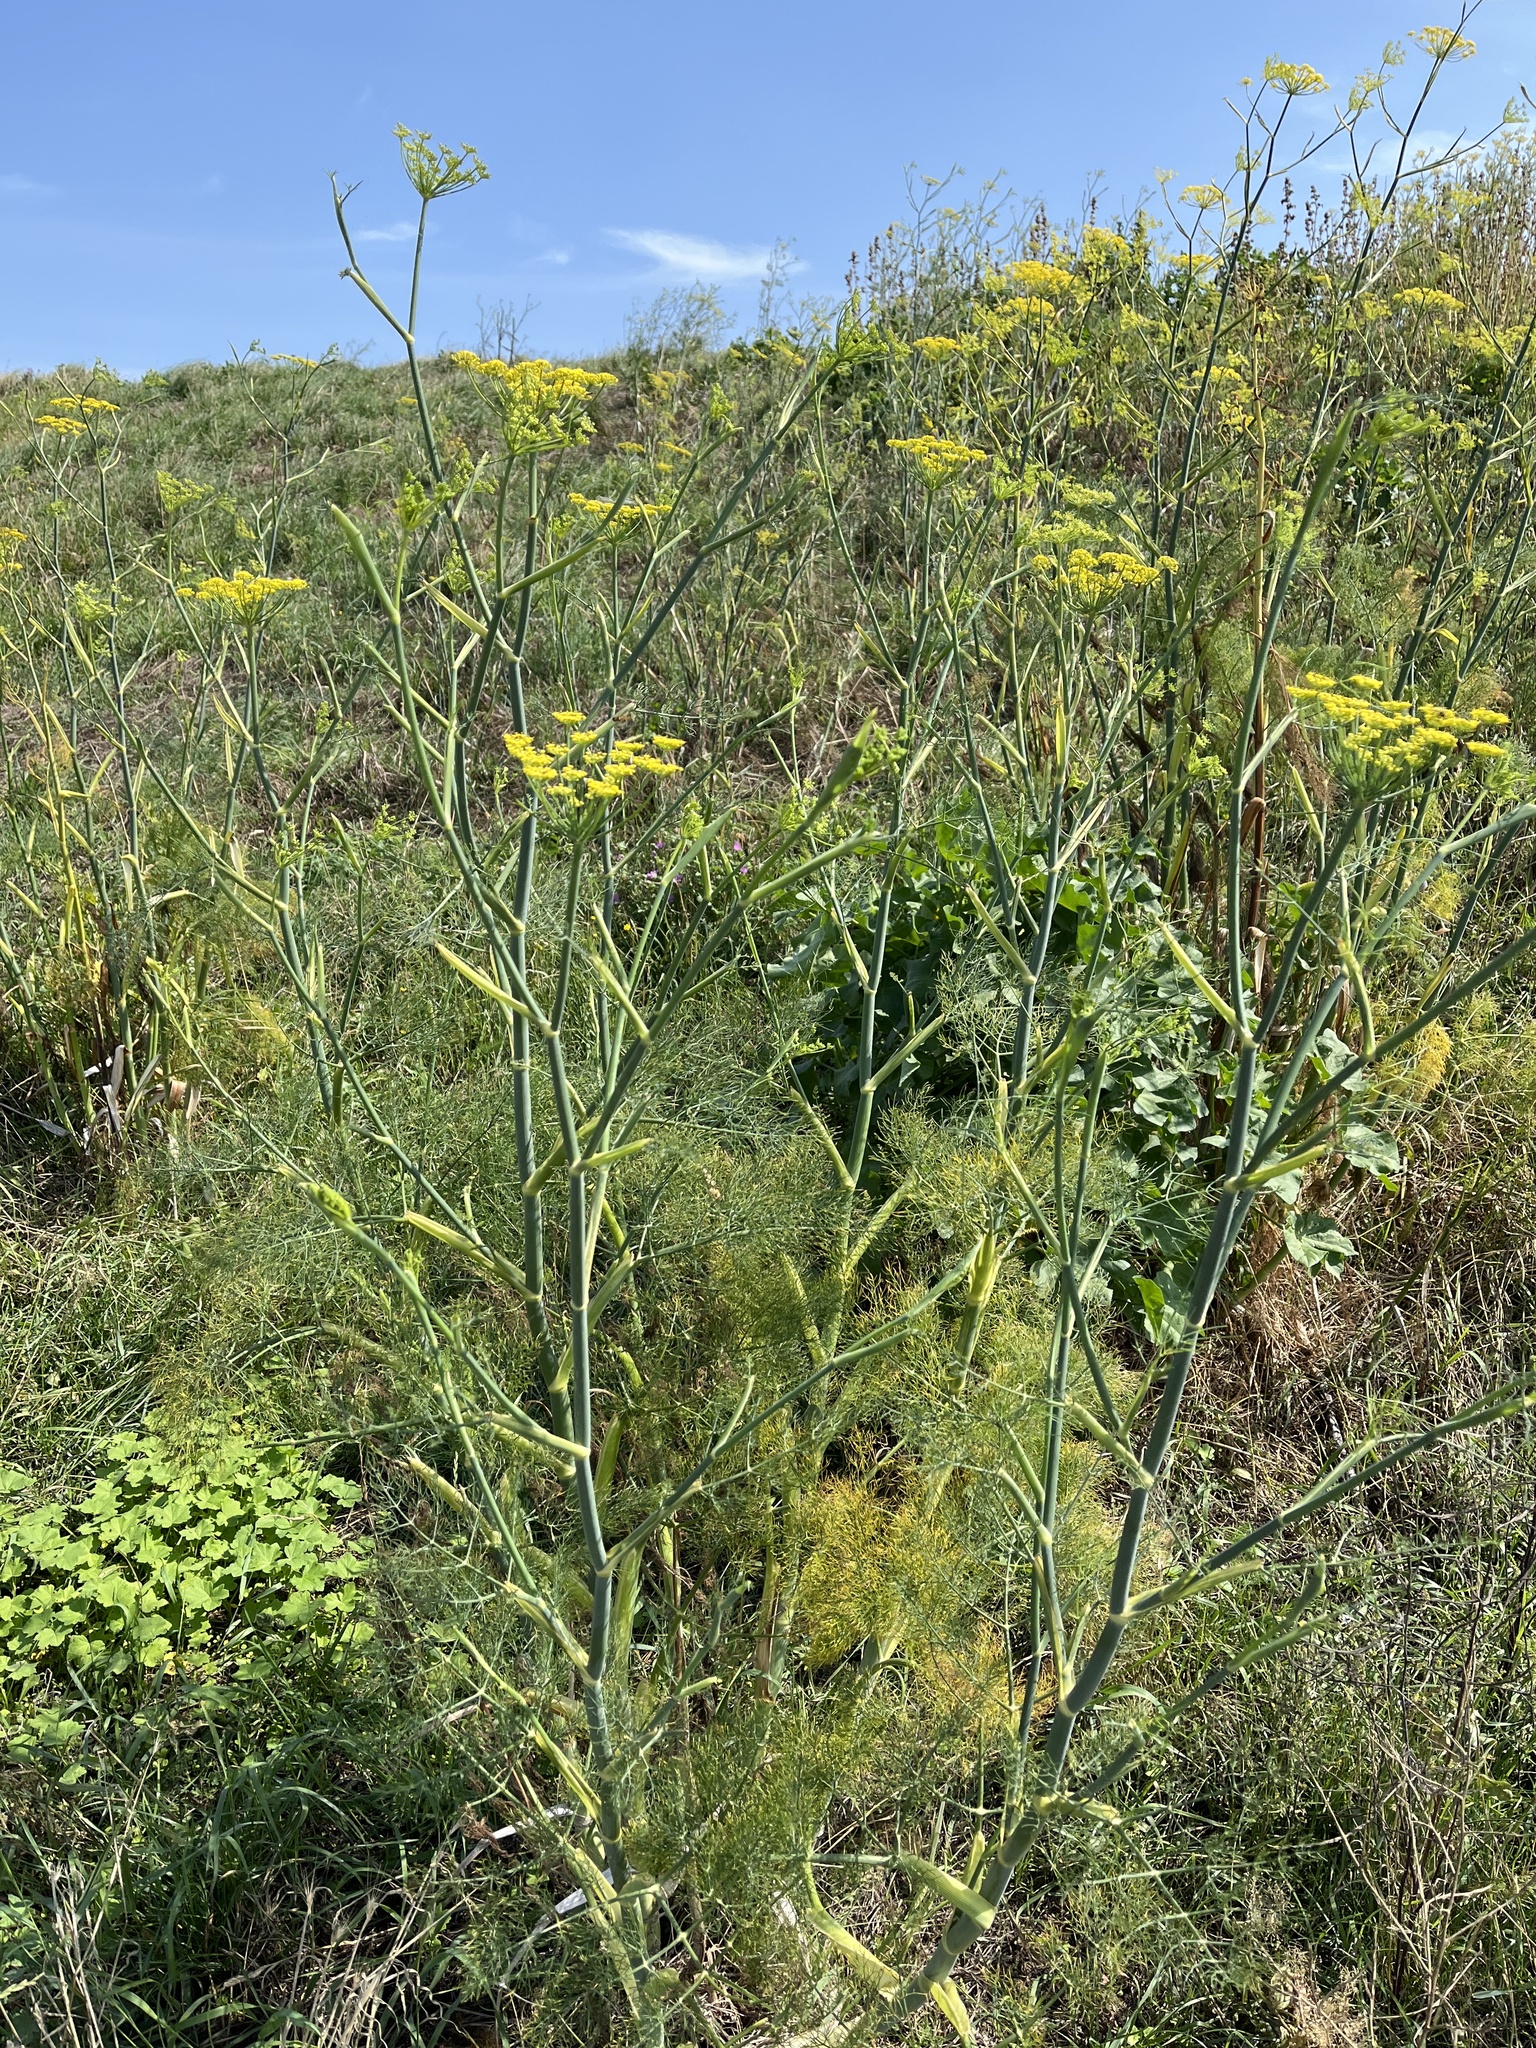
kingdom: Plantae
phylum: Tracheophyta
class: Magnoliopsida
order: Apiales
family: Apiaceae
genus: Foeniculum
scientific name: Foeniculum vulgare
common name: Fennel
